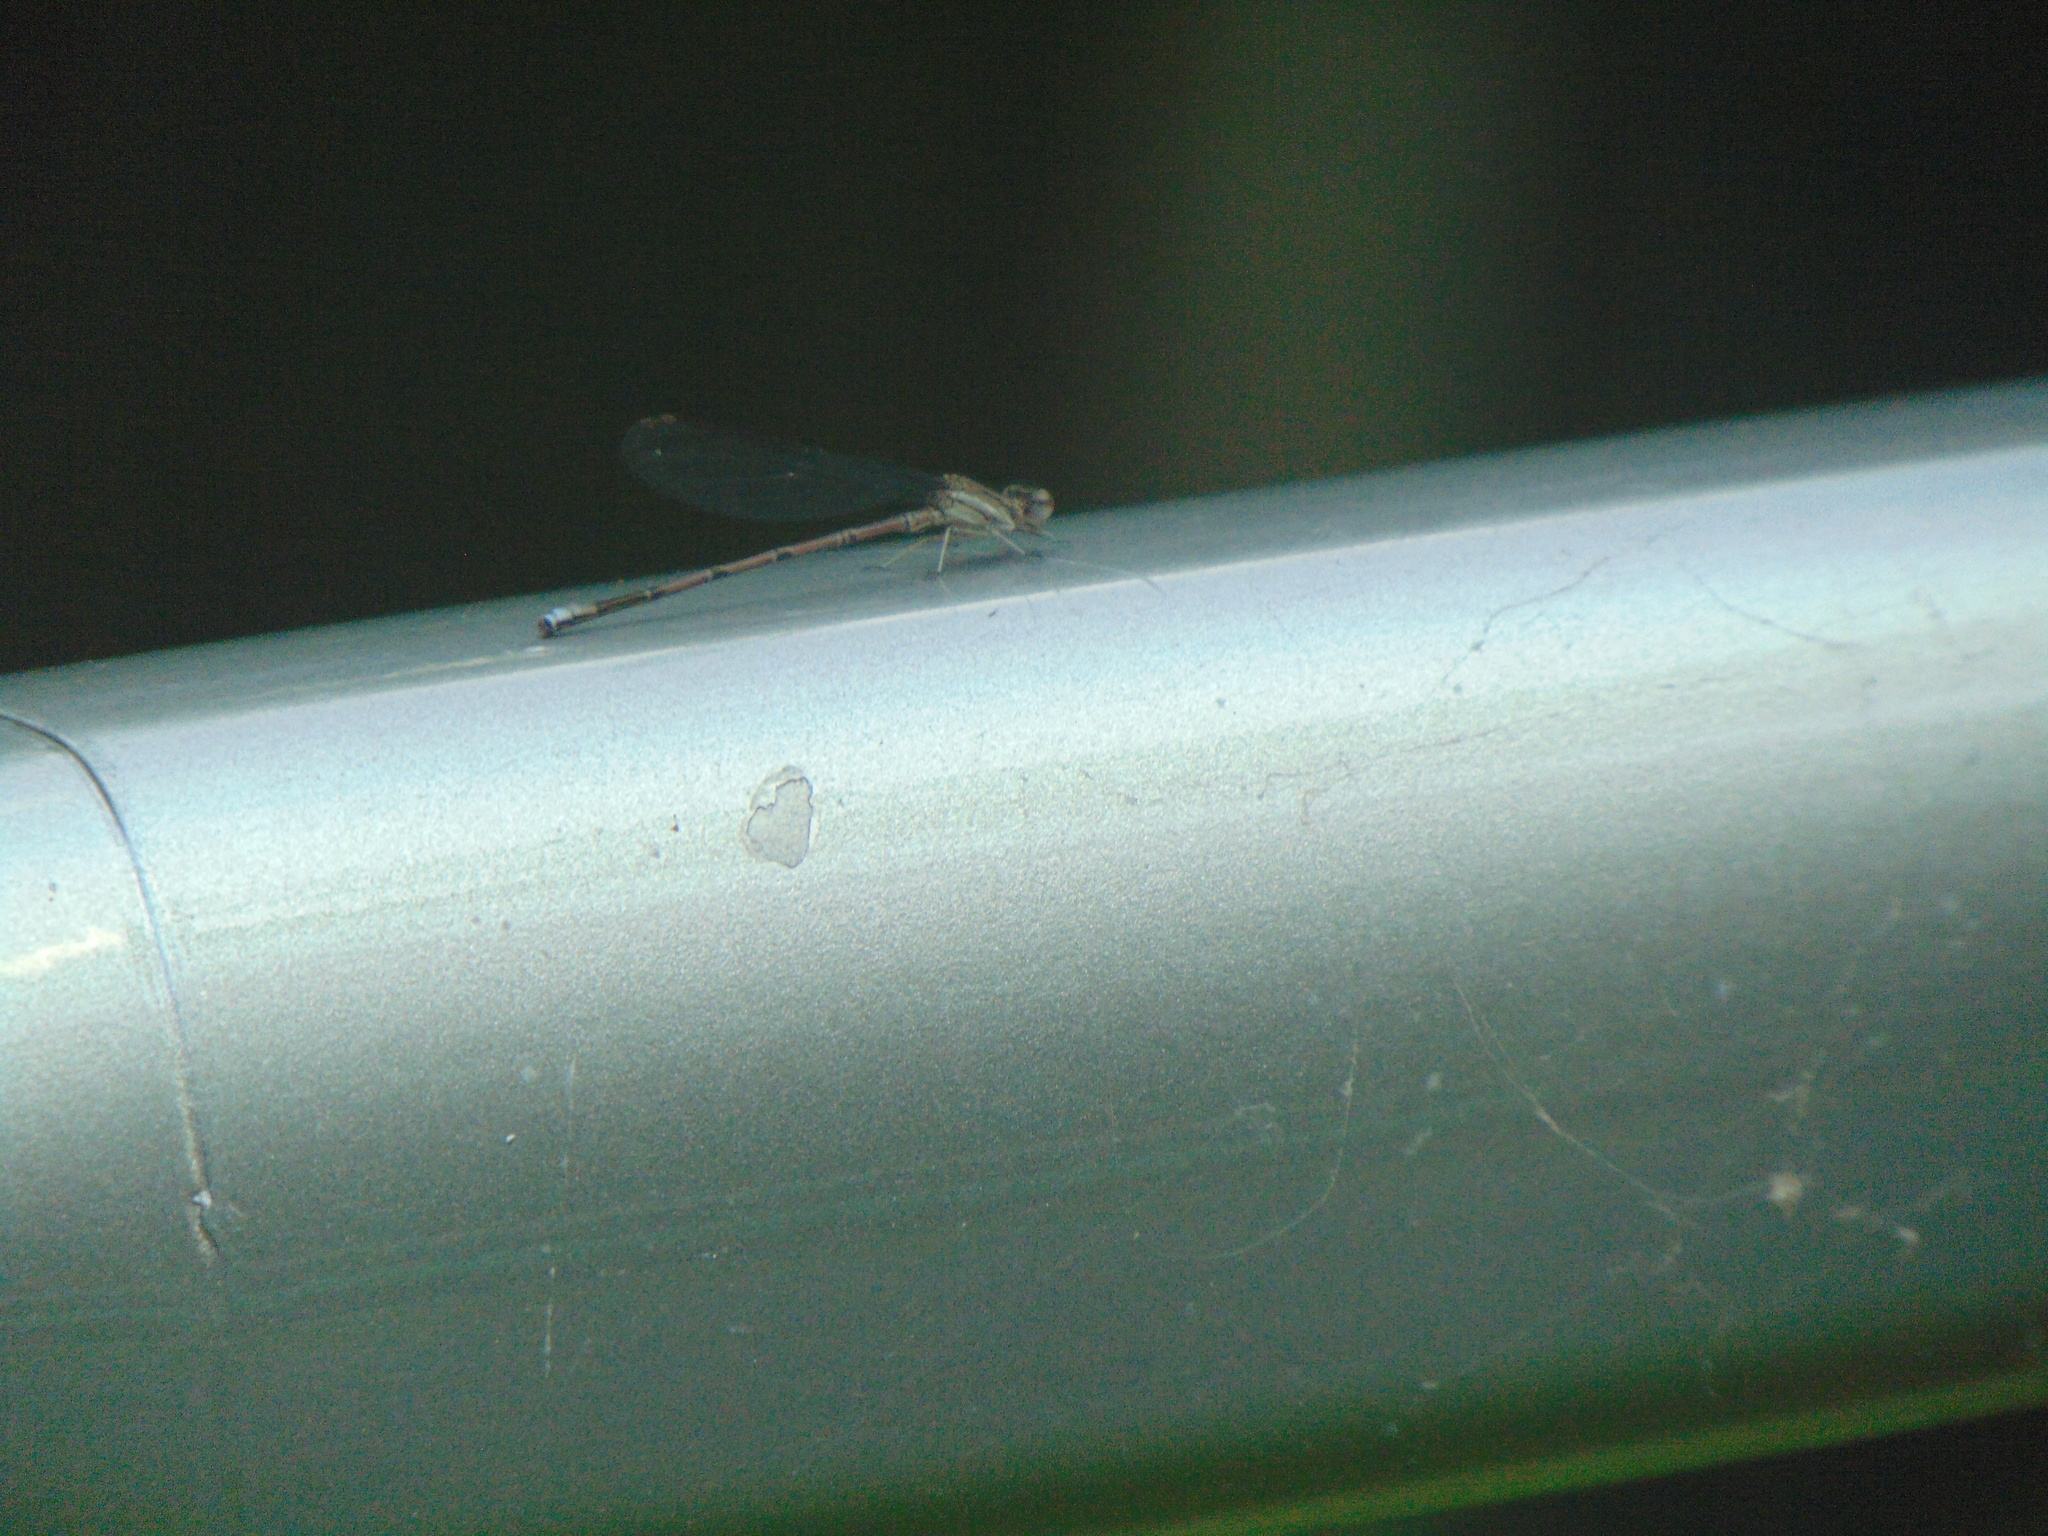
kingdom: Animalia
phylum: Arthropoda
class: Insecta
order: Odonata
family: Coenagrionidae
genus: Argia
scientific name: Argia fumipennis
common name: Variable dancer
